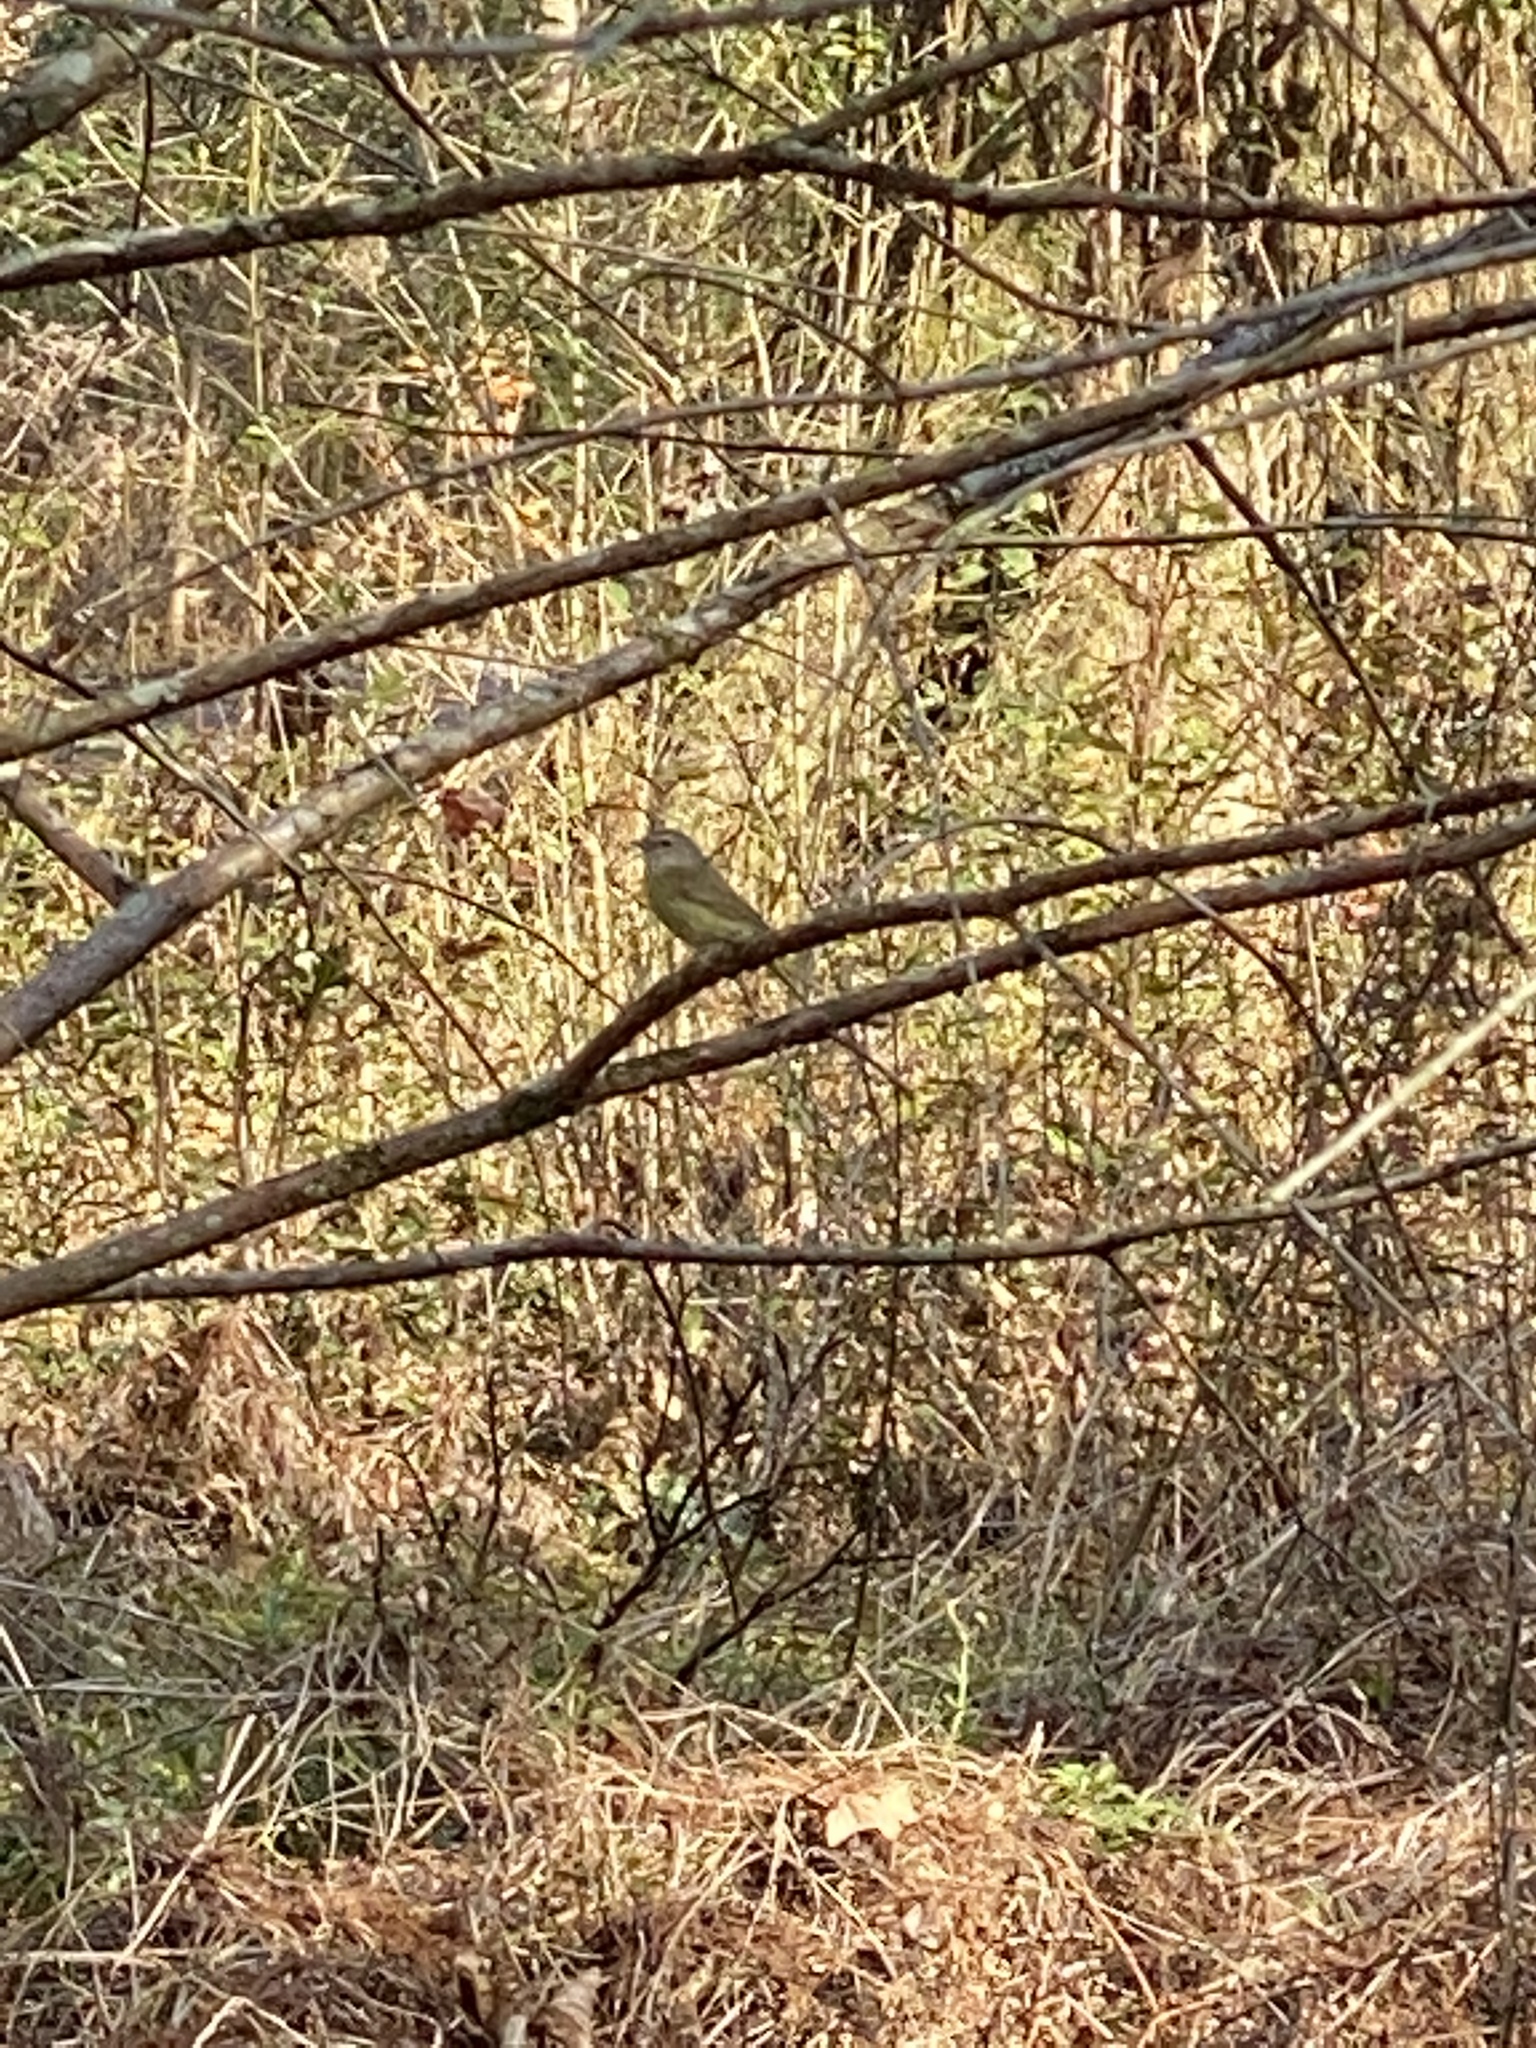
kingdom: Animalia
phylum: Chordata
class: Aves
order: Passeriformes
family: Parulidae
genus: Leiothlypis
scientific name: Leiothlypis celata
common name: Orange-crowned warbler
